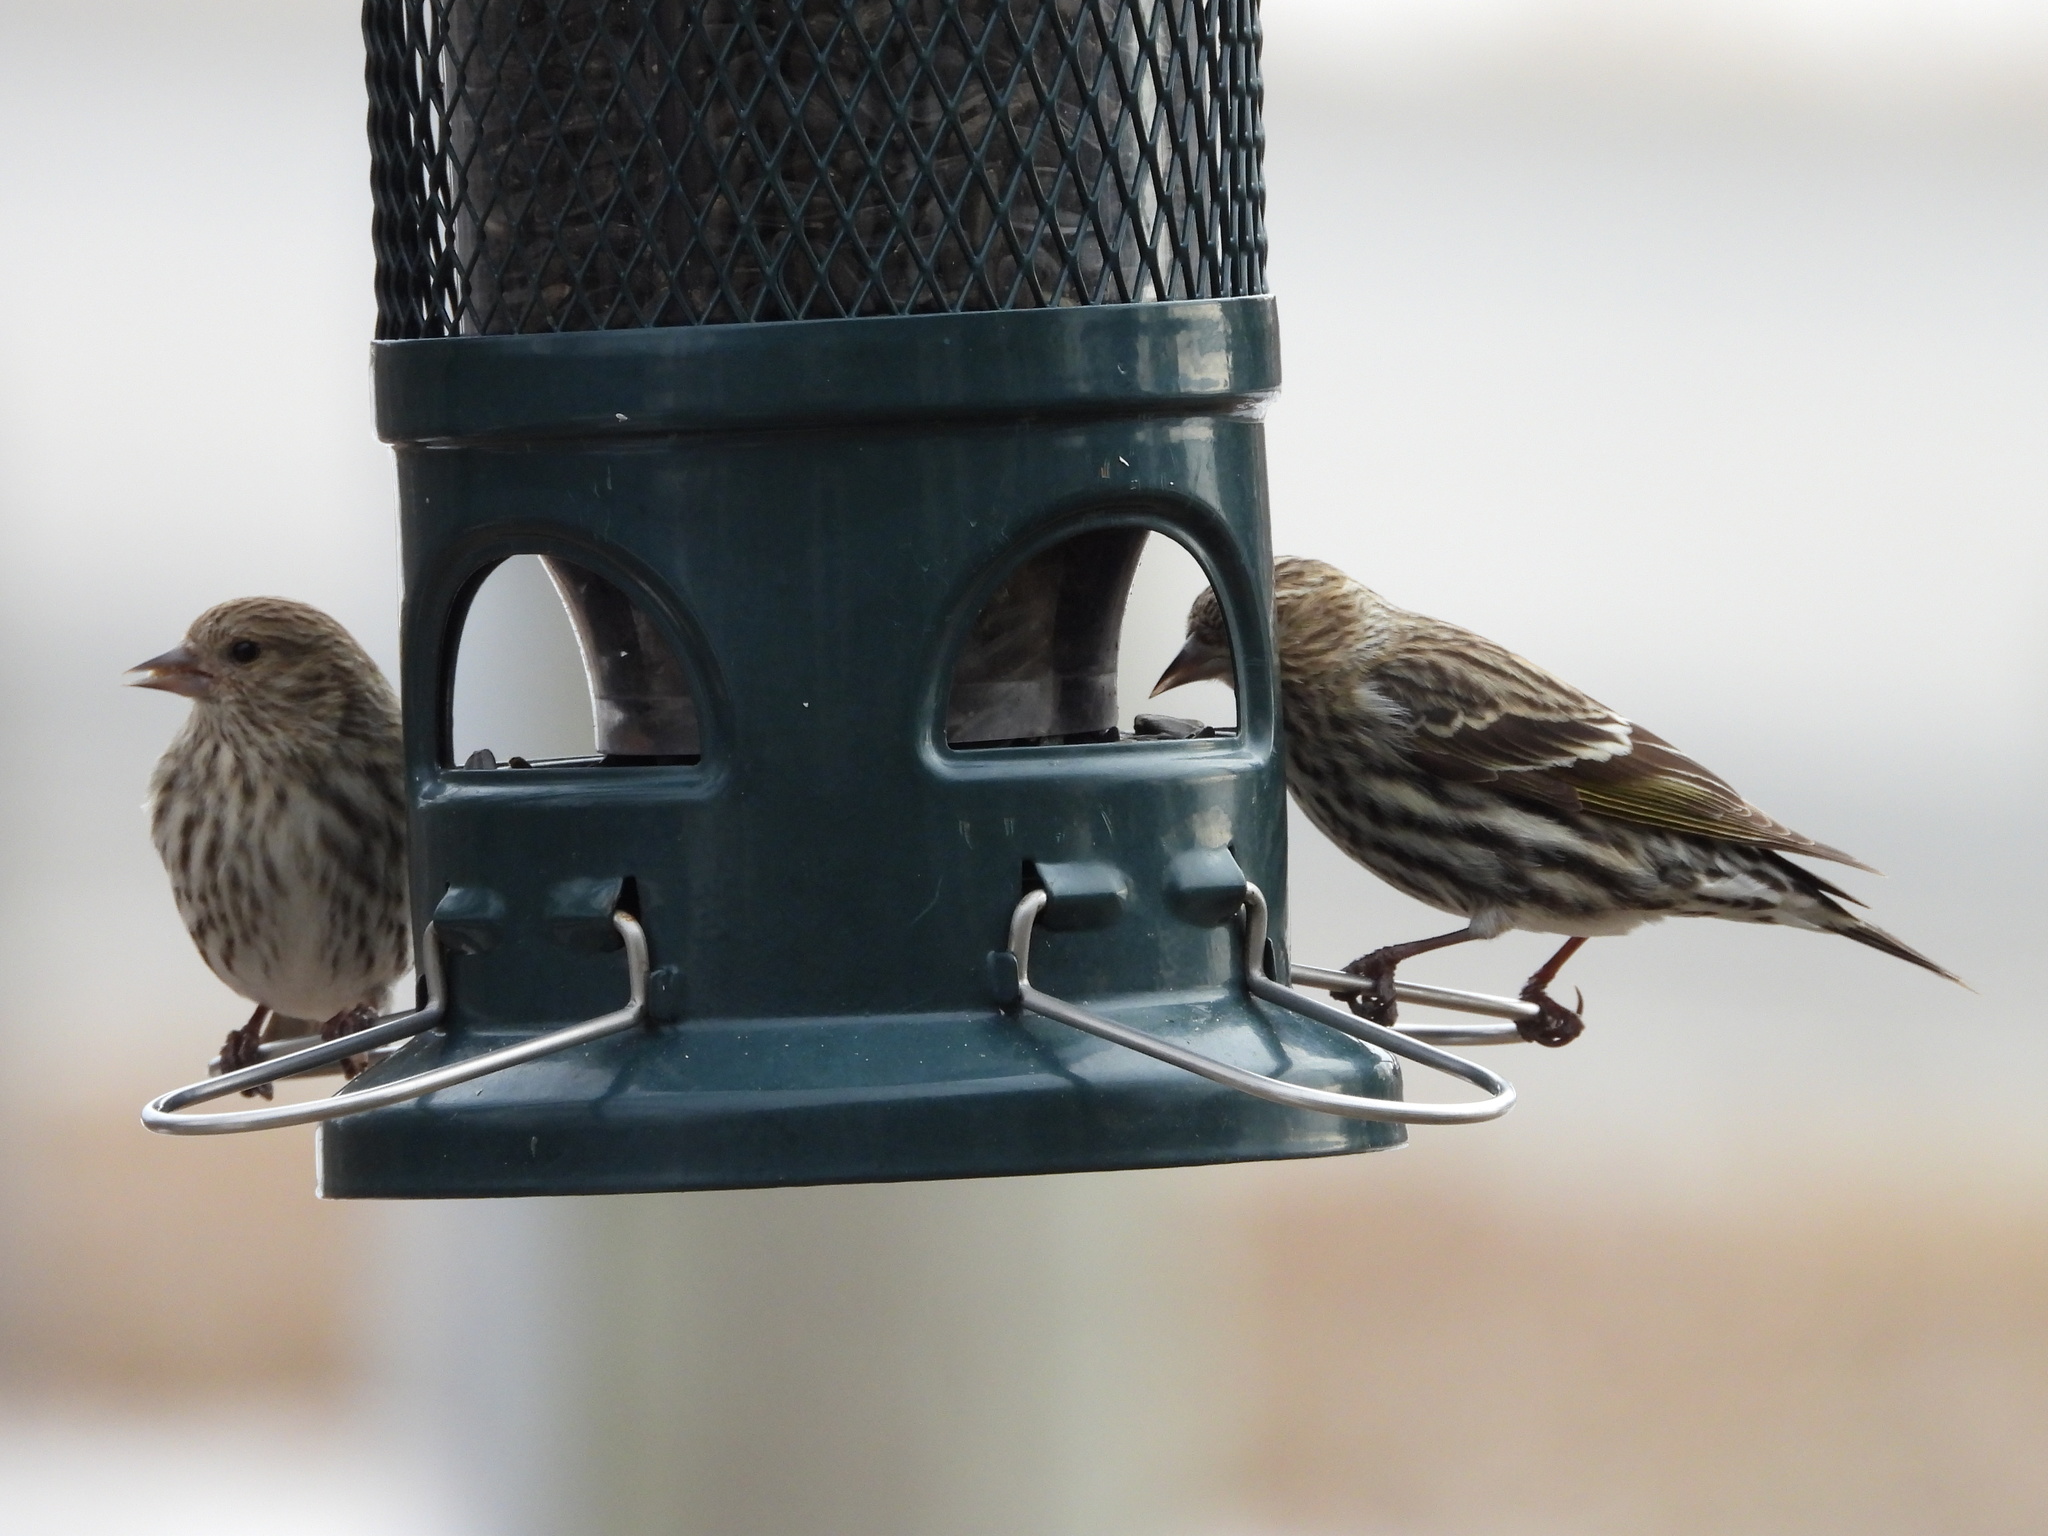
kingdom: Animalia
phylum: Chordata
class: Aves
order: Passeriformes
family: Fringillidae
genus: Spinus
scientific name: Spinus pinus
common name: Pine siskin
